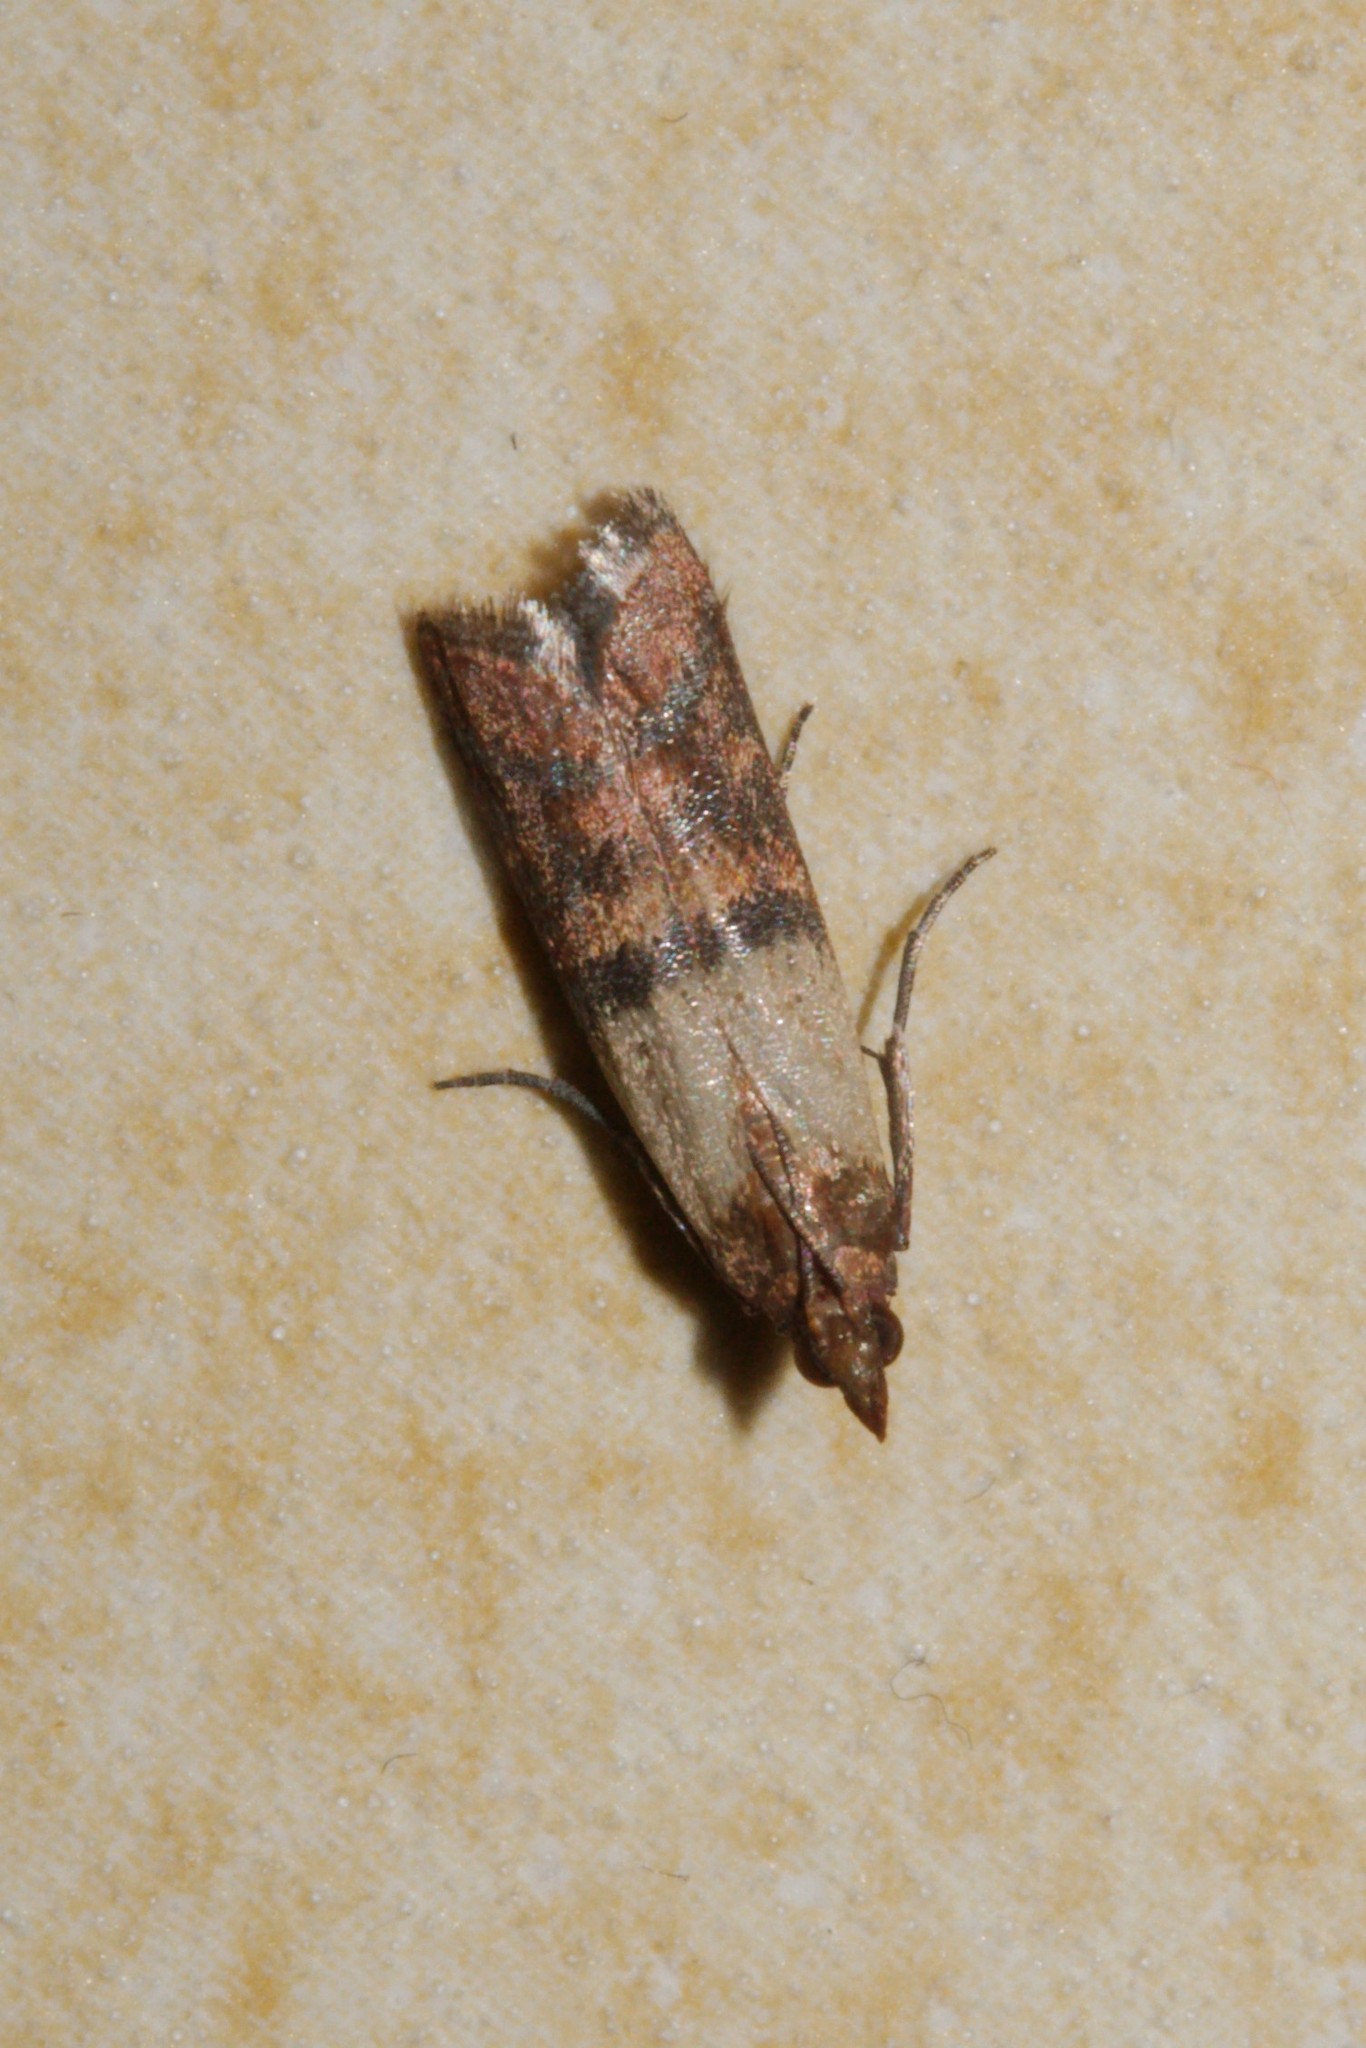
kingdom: Animalia
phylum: Arthropoda
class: Insecta
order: Lepidoptera
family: Pyralidae
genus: Plodia
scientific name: Plodia interpunctella
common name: Indian meal moth
